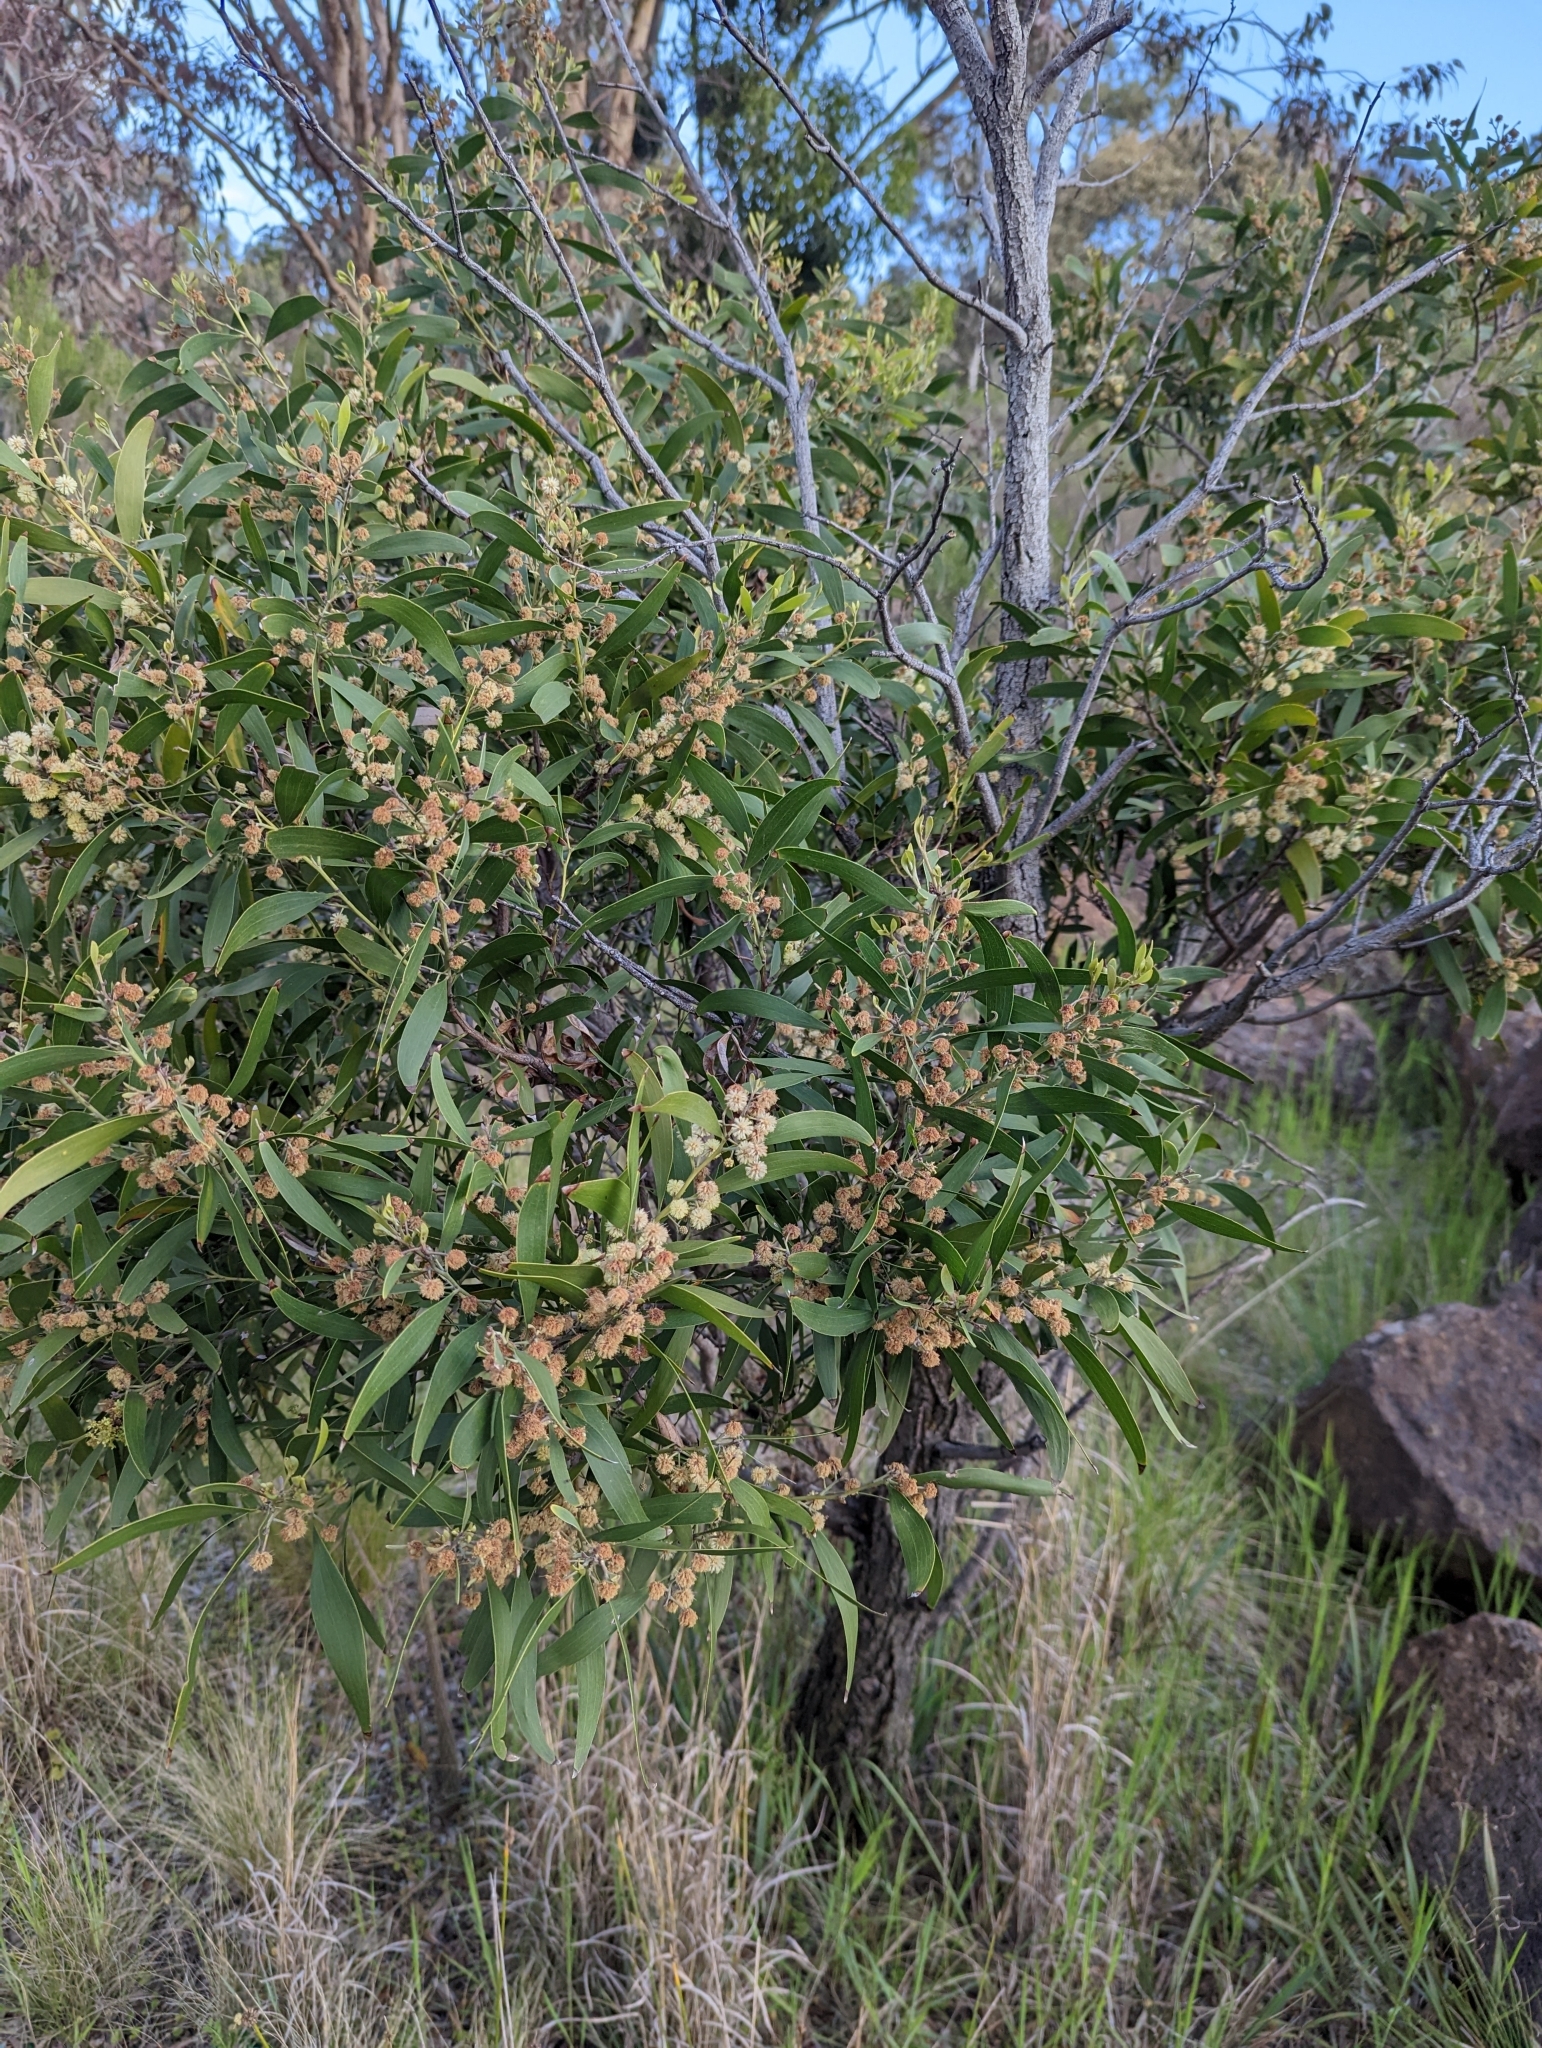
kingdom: Plantae
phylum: Tracheophyta
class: Magnoliopsida
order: Fabales
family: Fabaceae
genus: Acacia
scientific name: Acacia melanoxylon
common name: Blackwood
